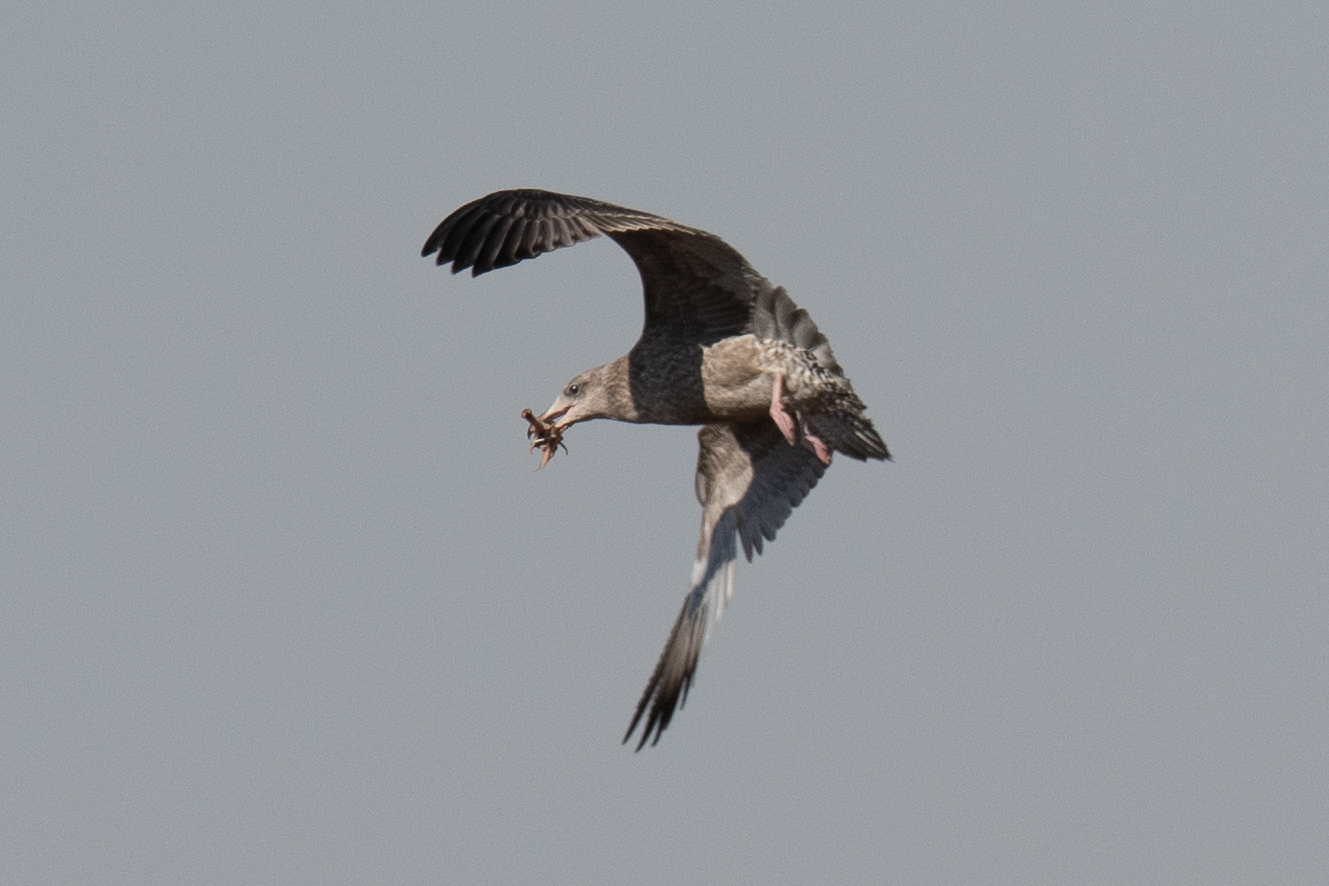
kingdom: Animalia
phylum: Chordata
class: Aves
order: Charadriiformes
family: Laridae
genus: Larus
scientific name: Larus argentatus
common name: Herring gull
